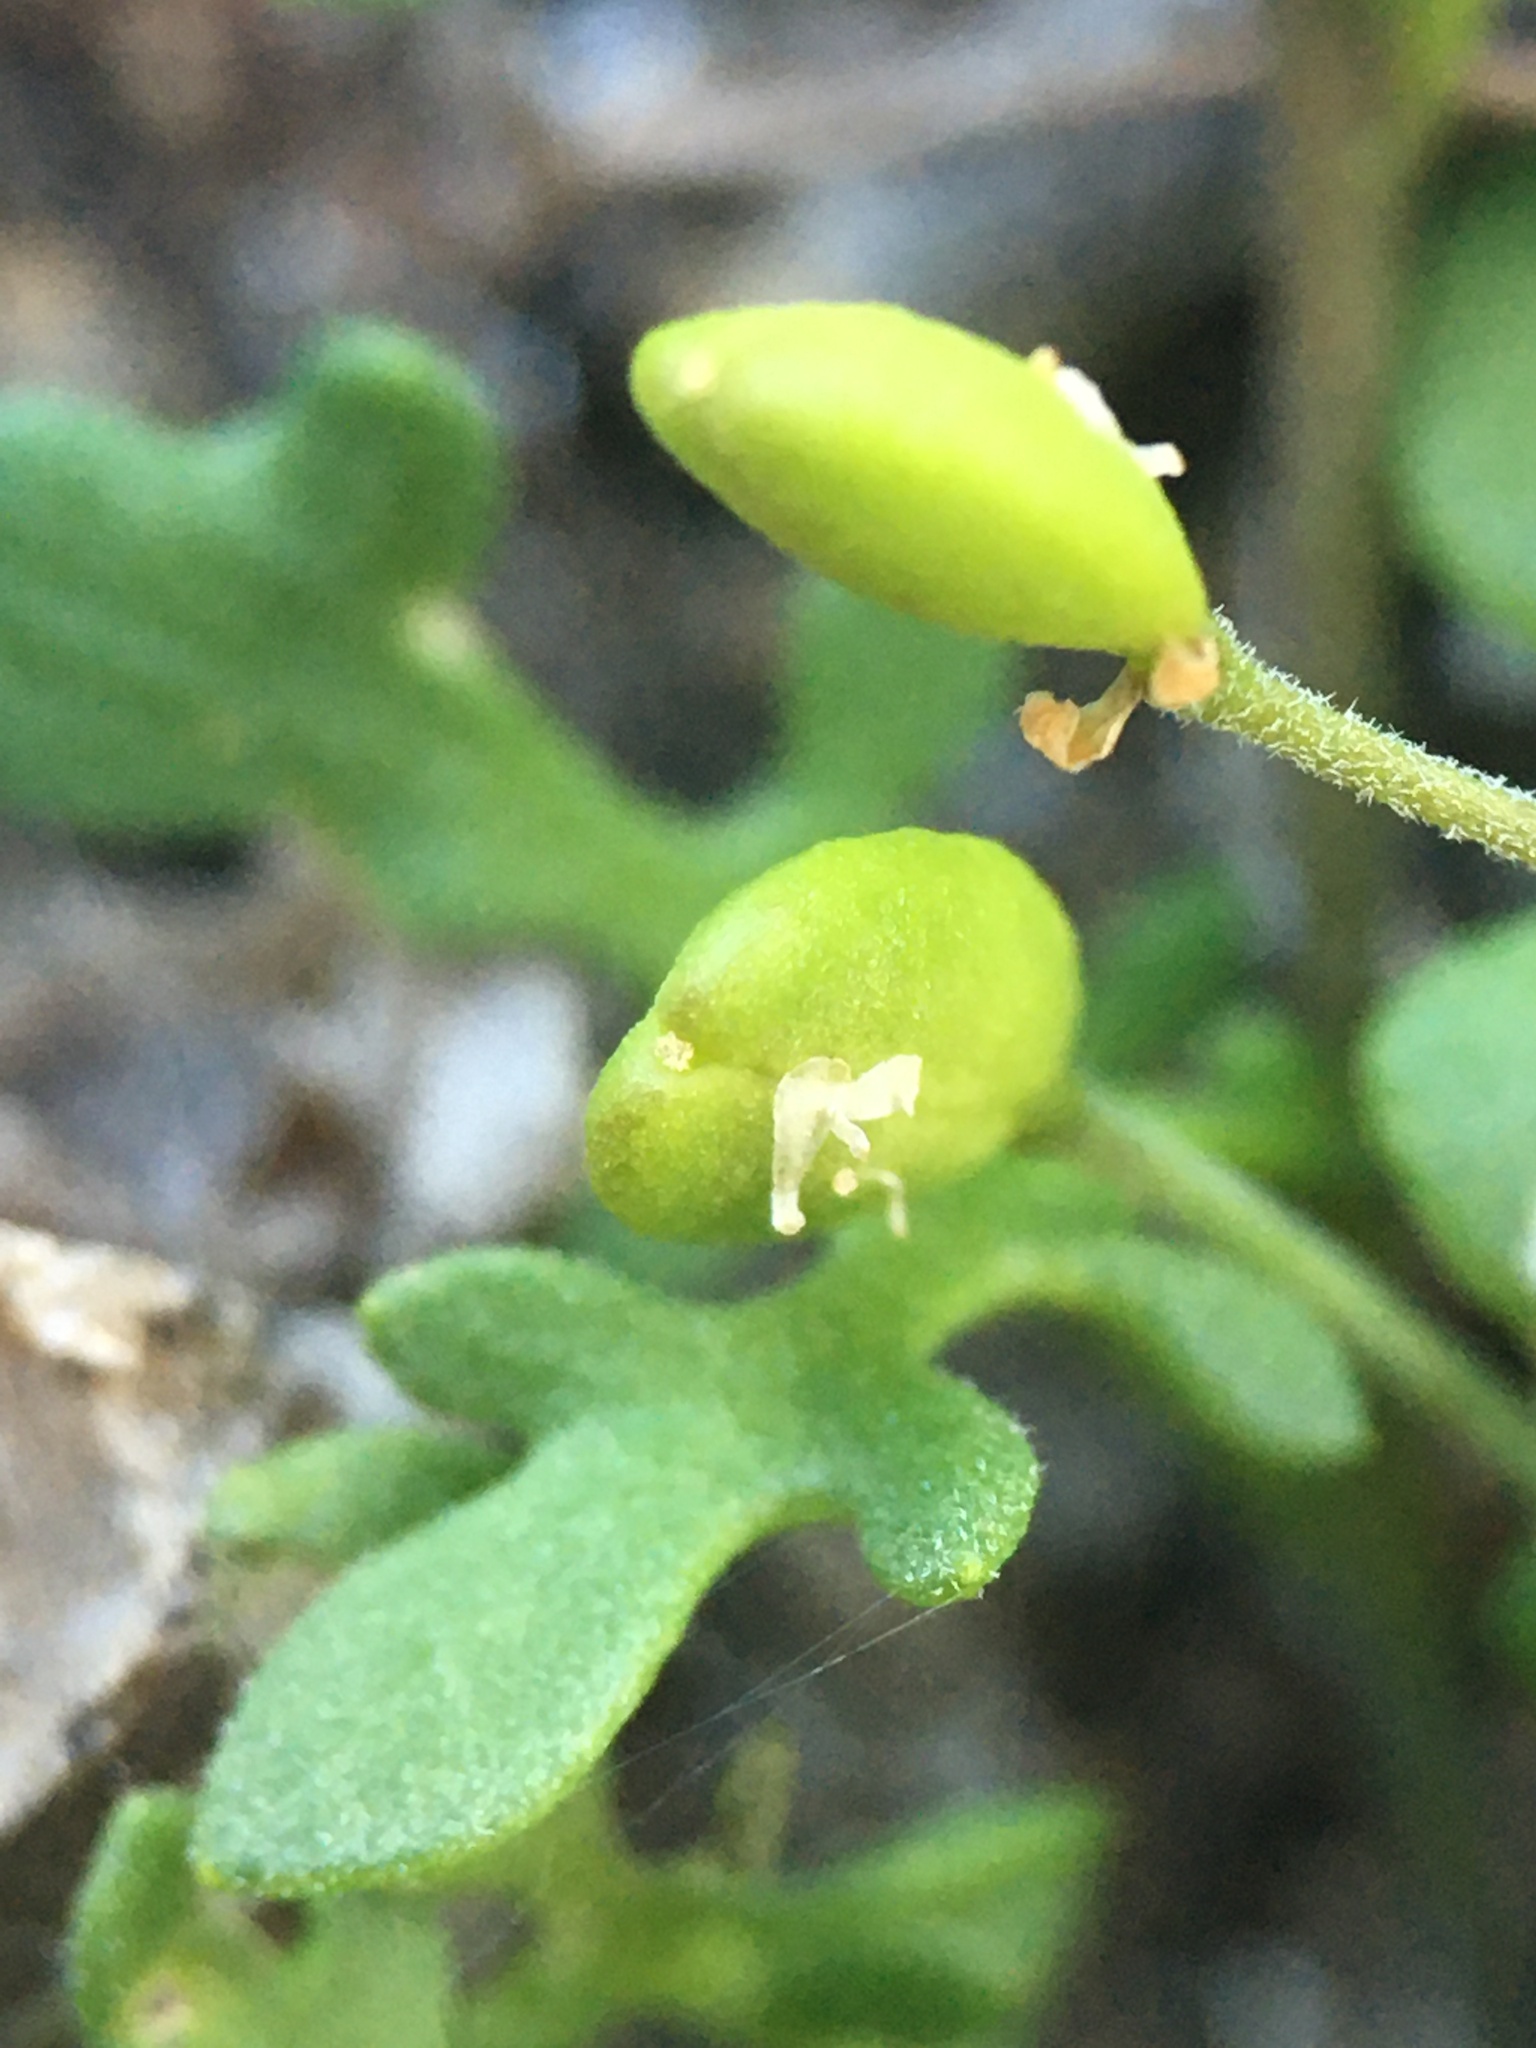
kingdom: Plantae
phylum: Tracheophyta
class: Magnoliopsida
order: Brassicales
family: Brassicaceae
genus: Hornungia
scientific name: Hornungia procumbens
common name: Oval purse
